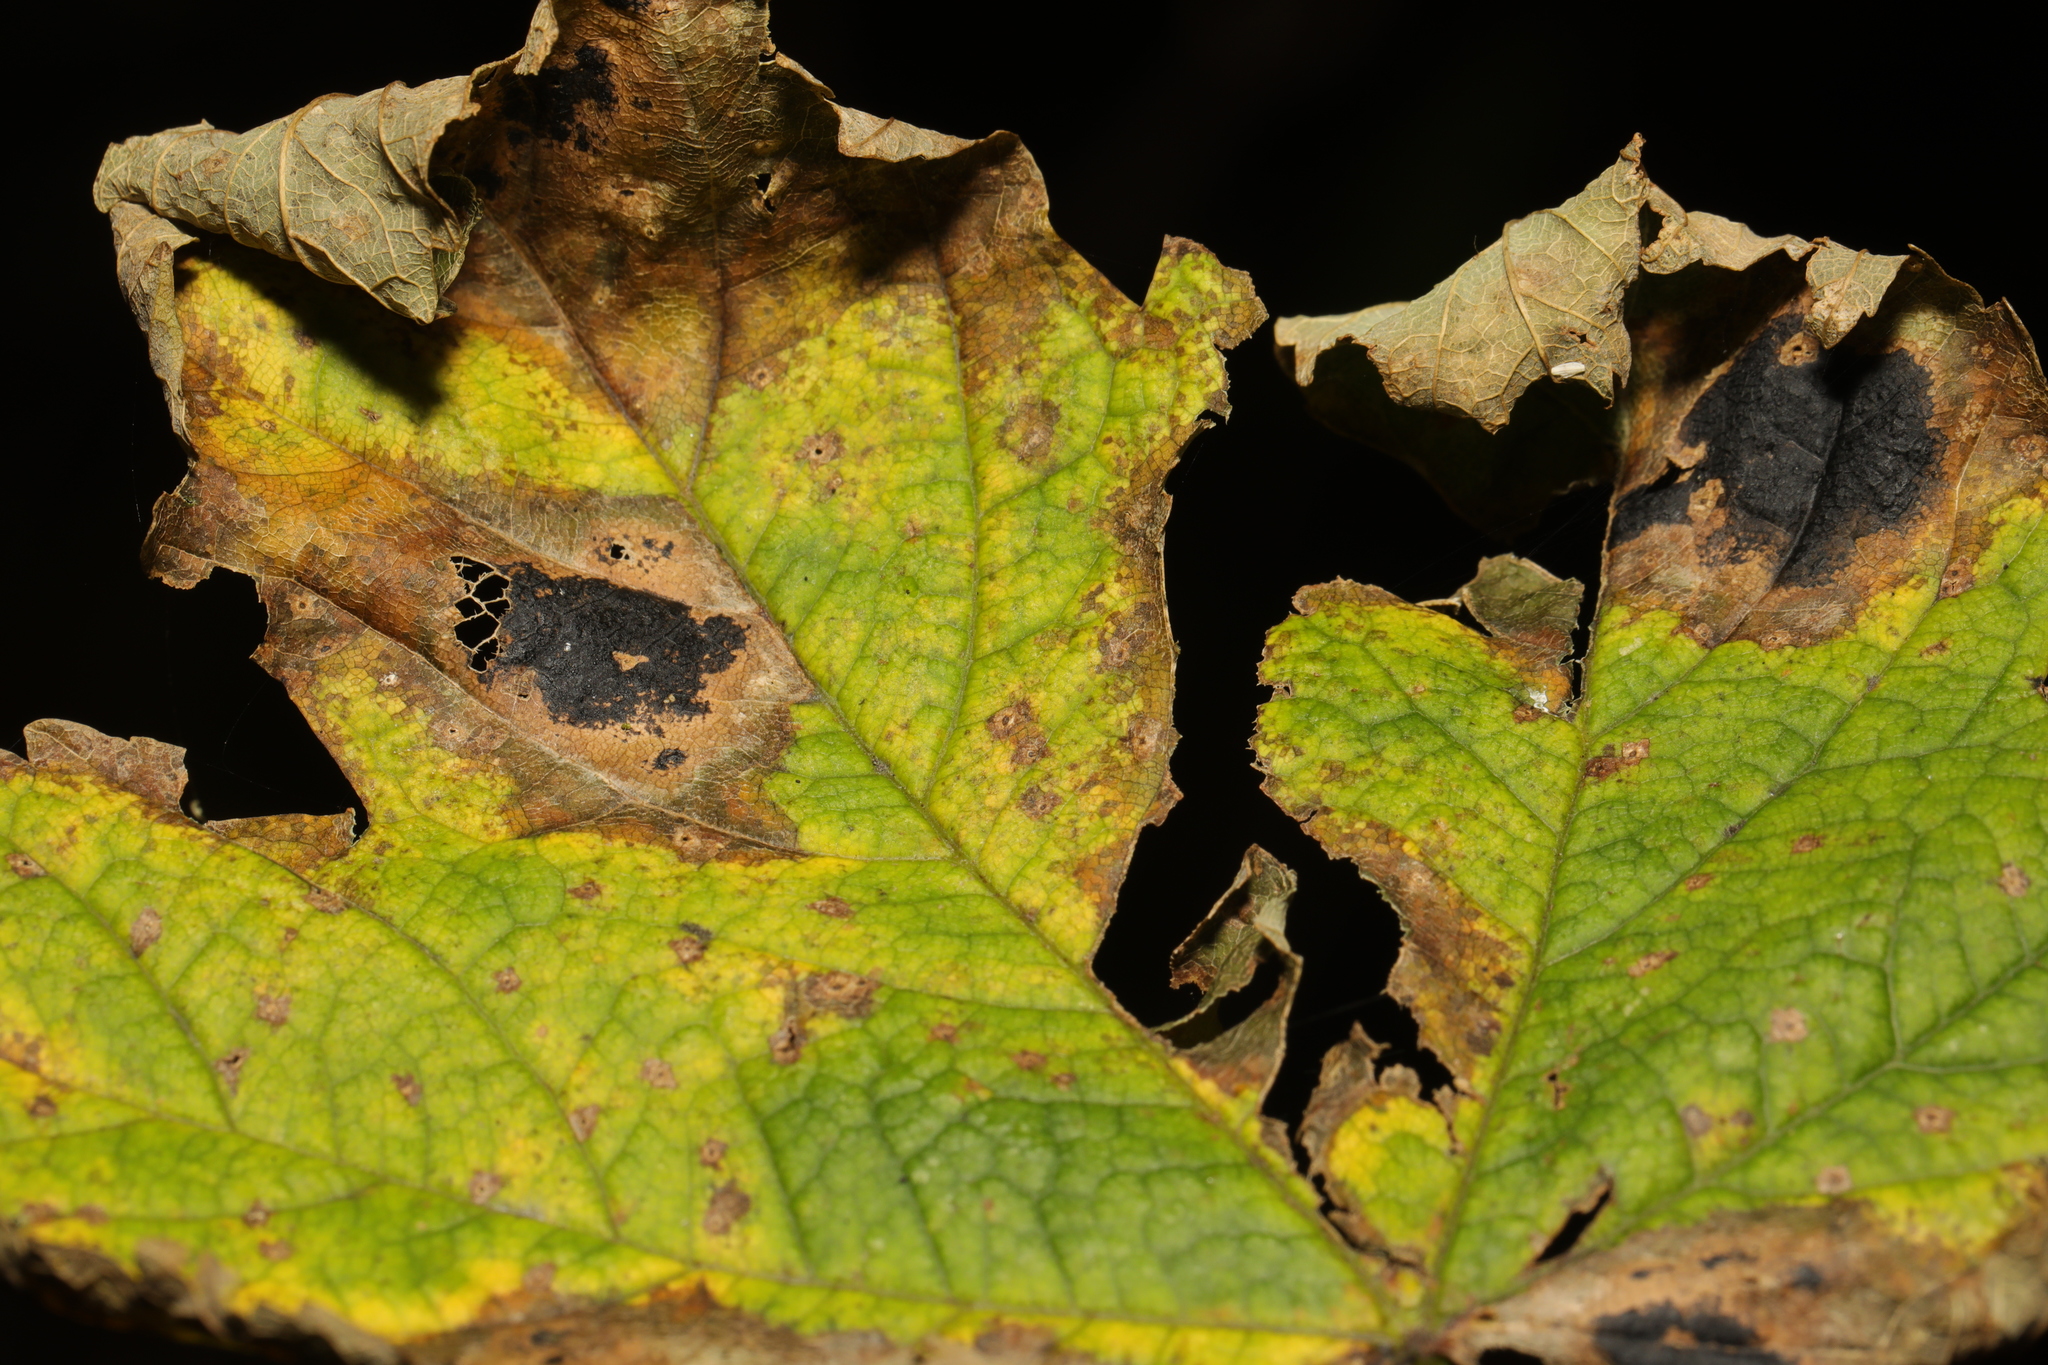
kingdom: Fungi
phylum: Ascomycota
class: Leotiomycetes
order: Rhytismatales
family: Rhytismataceae
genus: Rhytisma
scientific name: Rhytisma acerinum
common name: European tar spot
